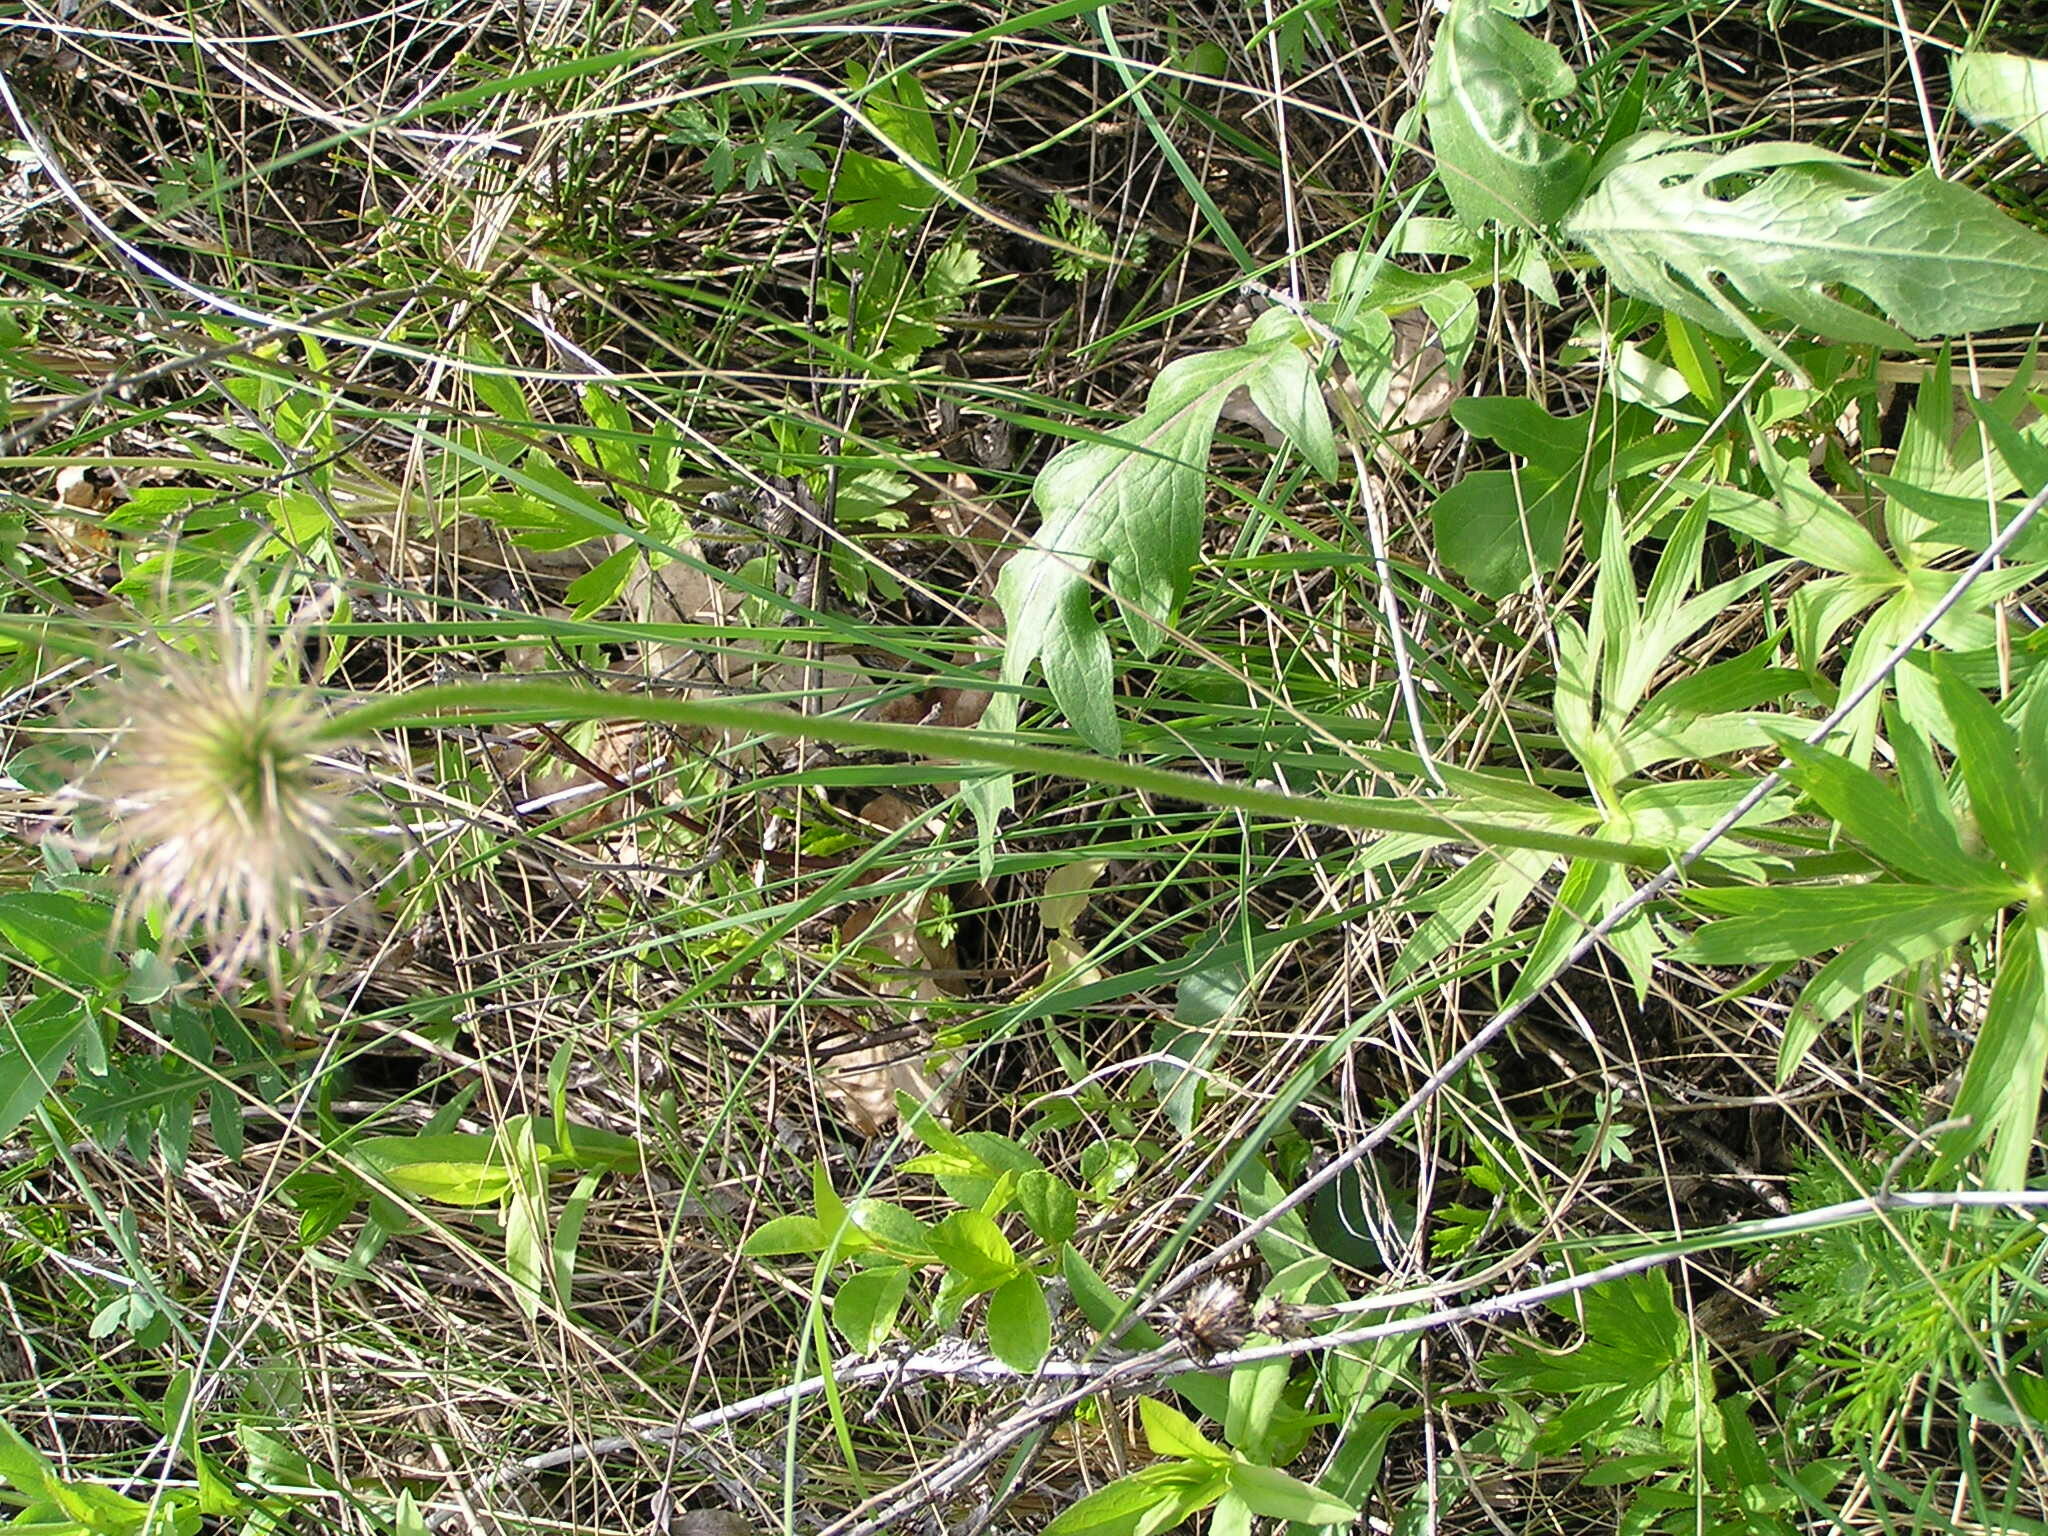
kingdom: Plantae
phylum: Tracheophyta
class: Magnoliopsida
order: Ranunculales
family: Ranunculaceae
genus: Pulsatilla
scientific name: Pulsatilla patens
